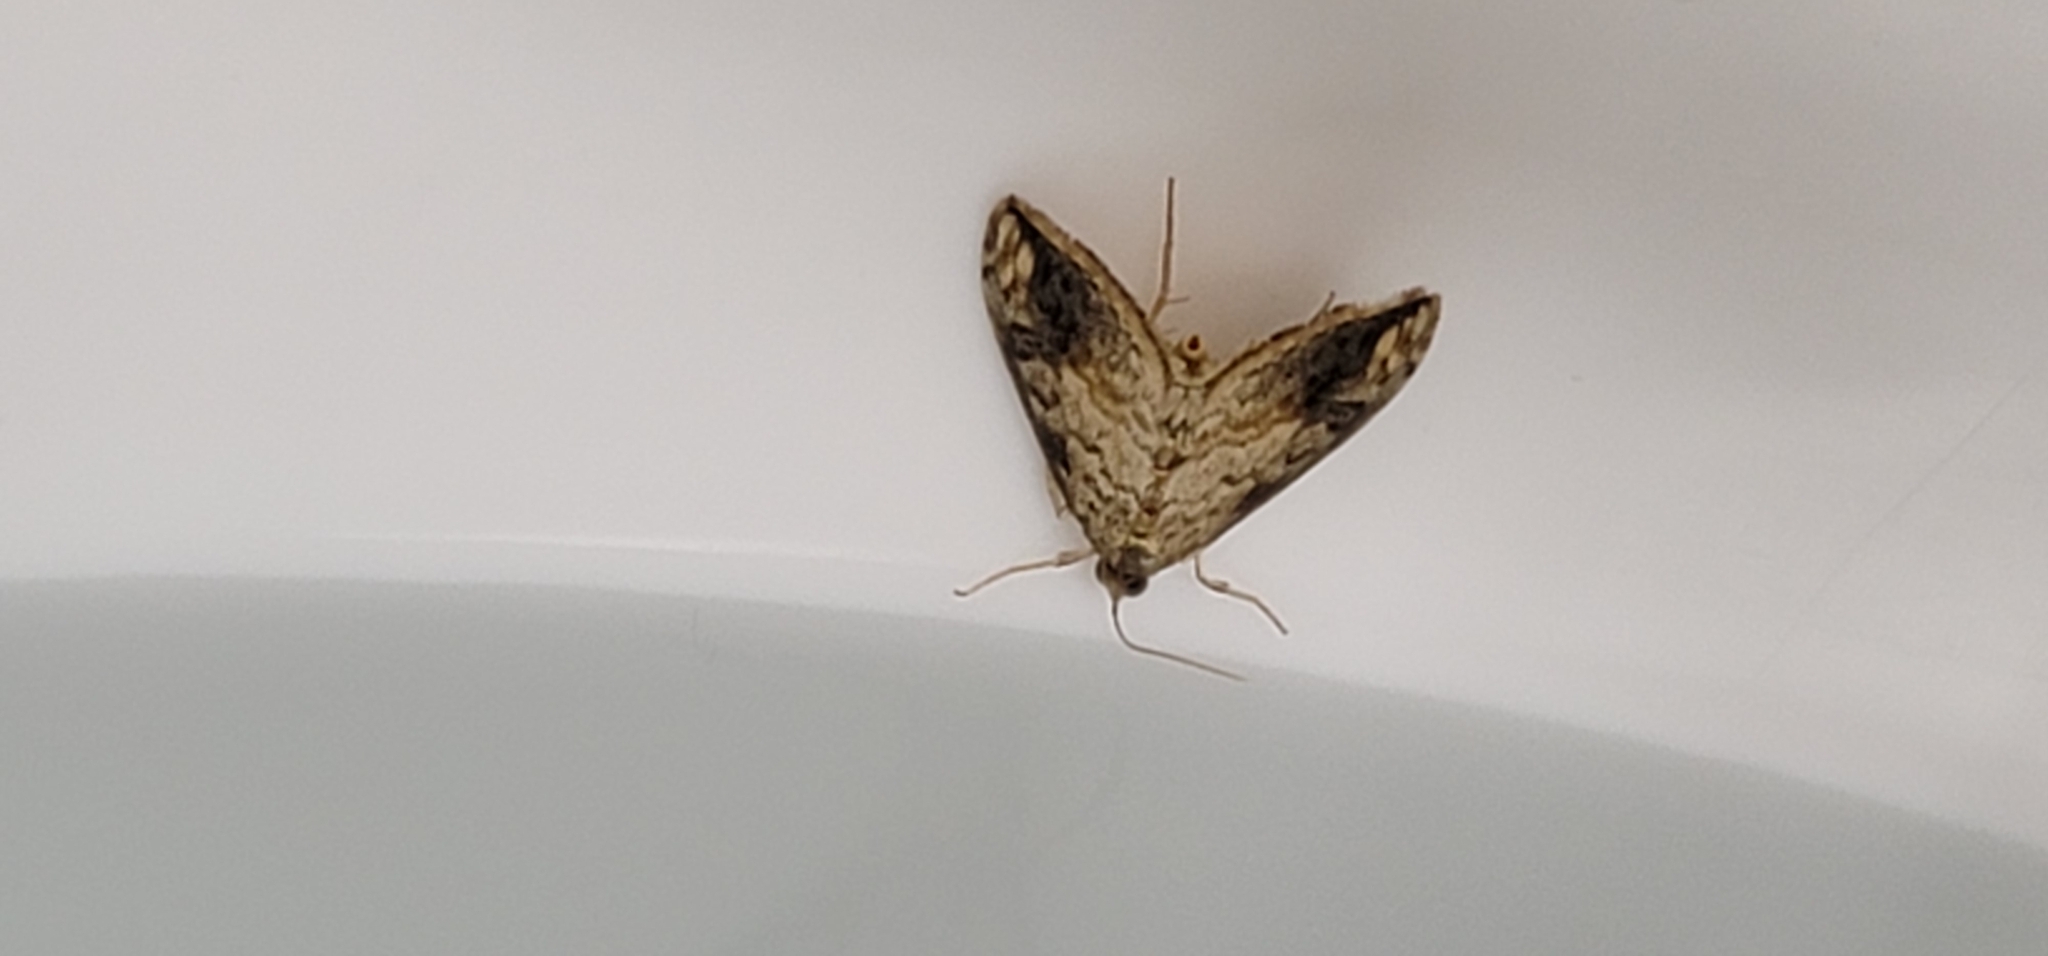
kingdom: Animalia
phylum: Arthropoda
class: Insecta
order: Lepidoptera
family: Crambidae
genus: Evergestis
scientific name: Evergestis rimosalis
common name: Cross-striped cabbageworm moth
